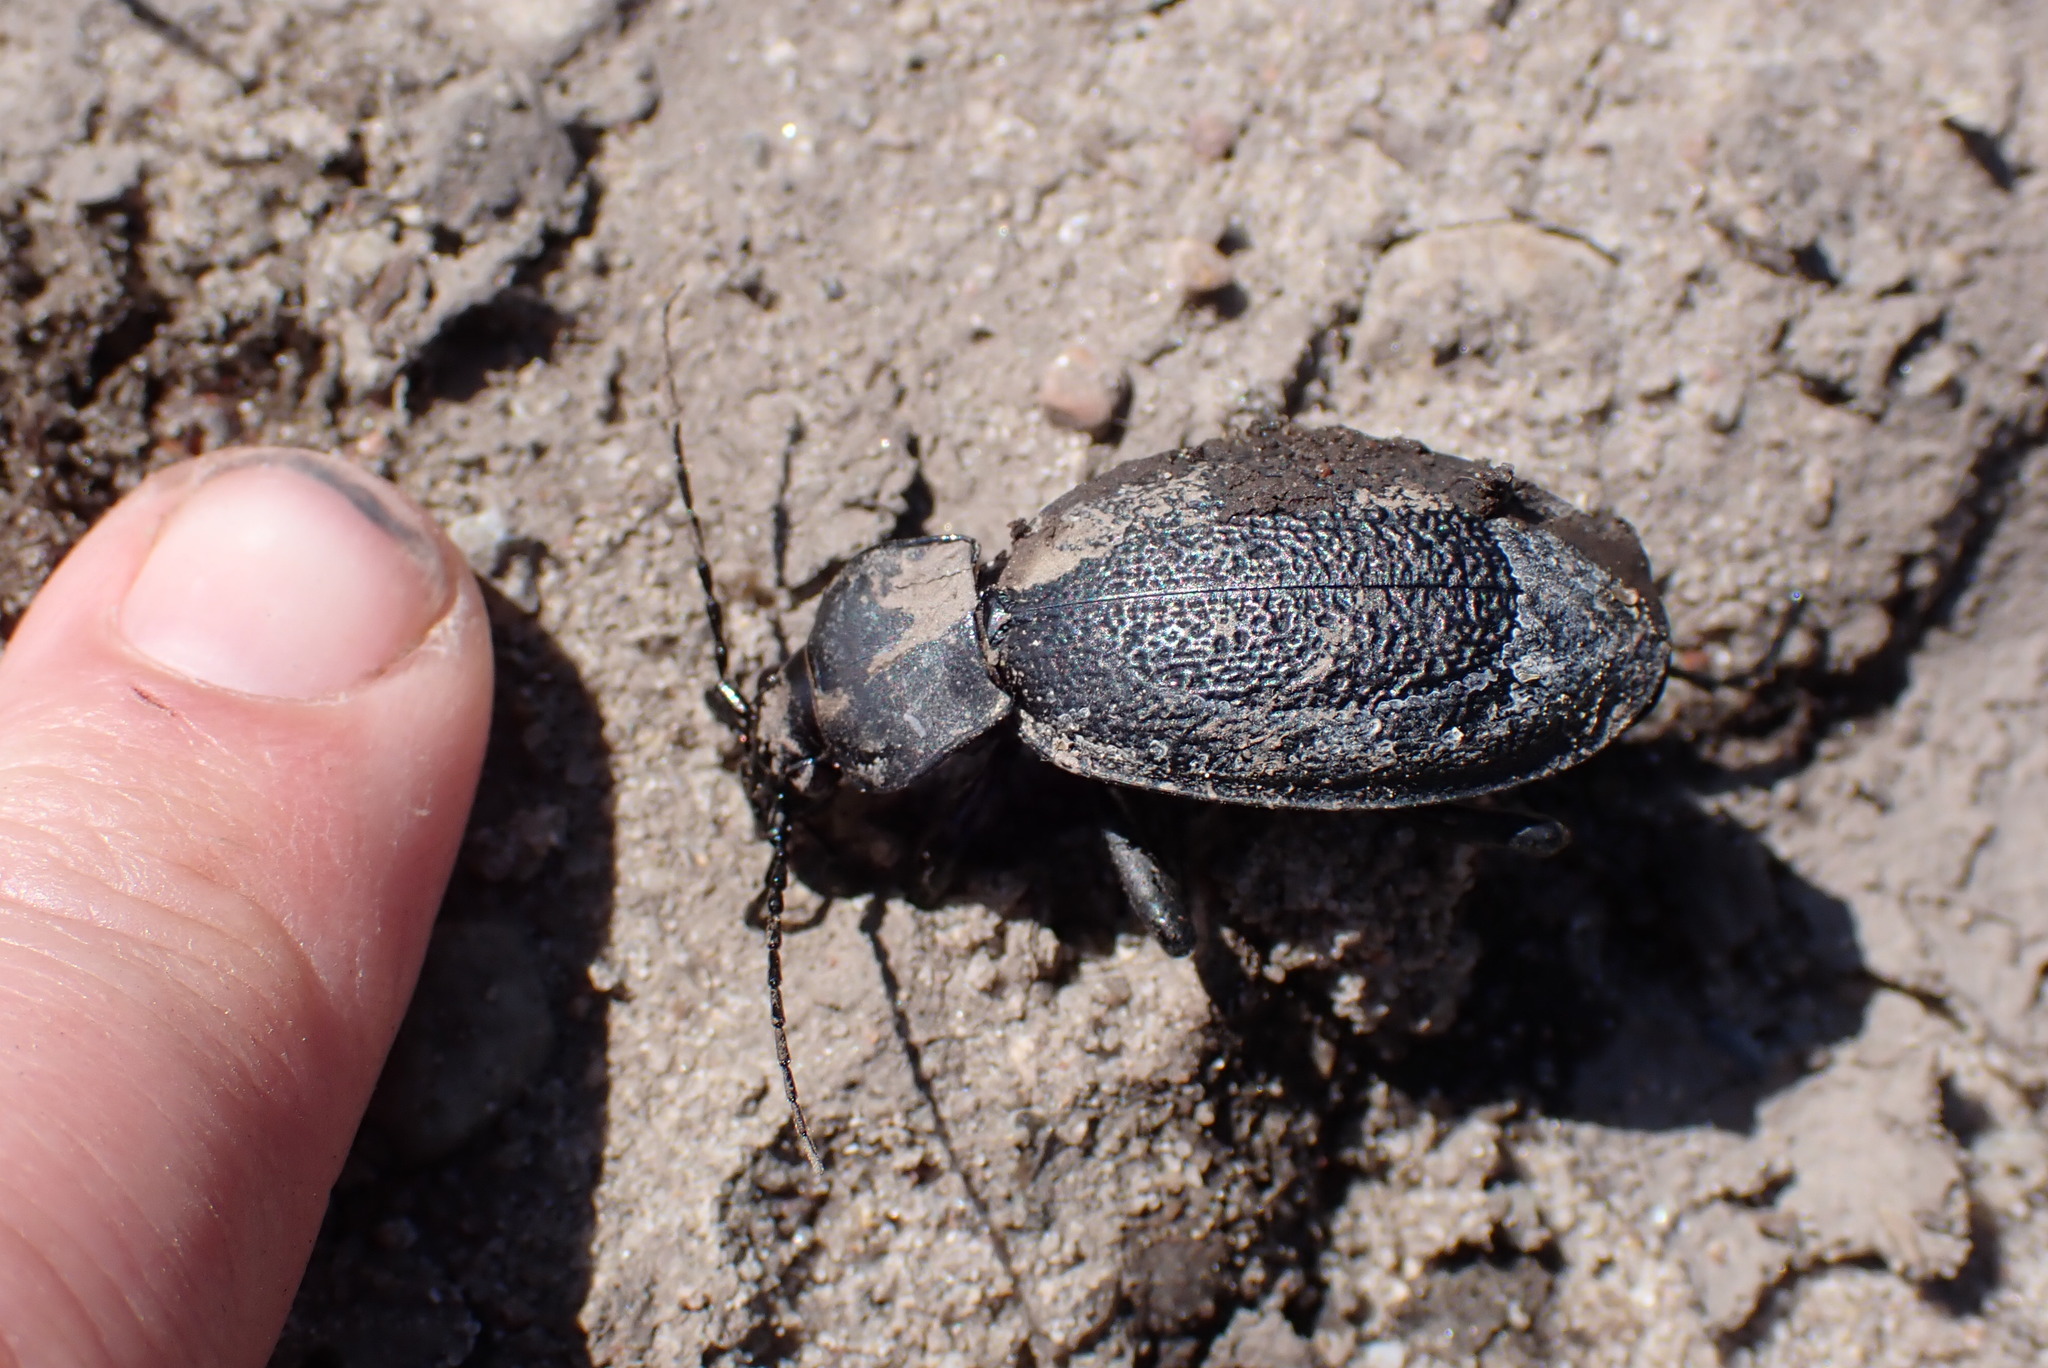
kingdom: Animalia
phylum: Arthropoda
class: Insecta
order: Coleoptera
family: Carabidae
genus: Carabus
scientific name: Carabus coriaceus
